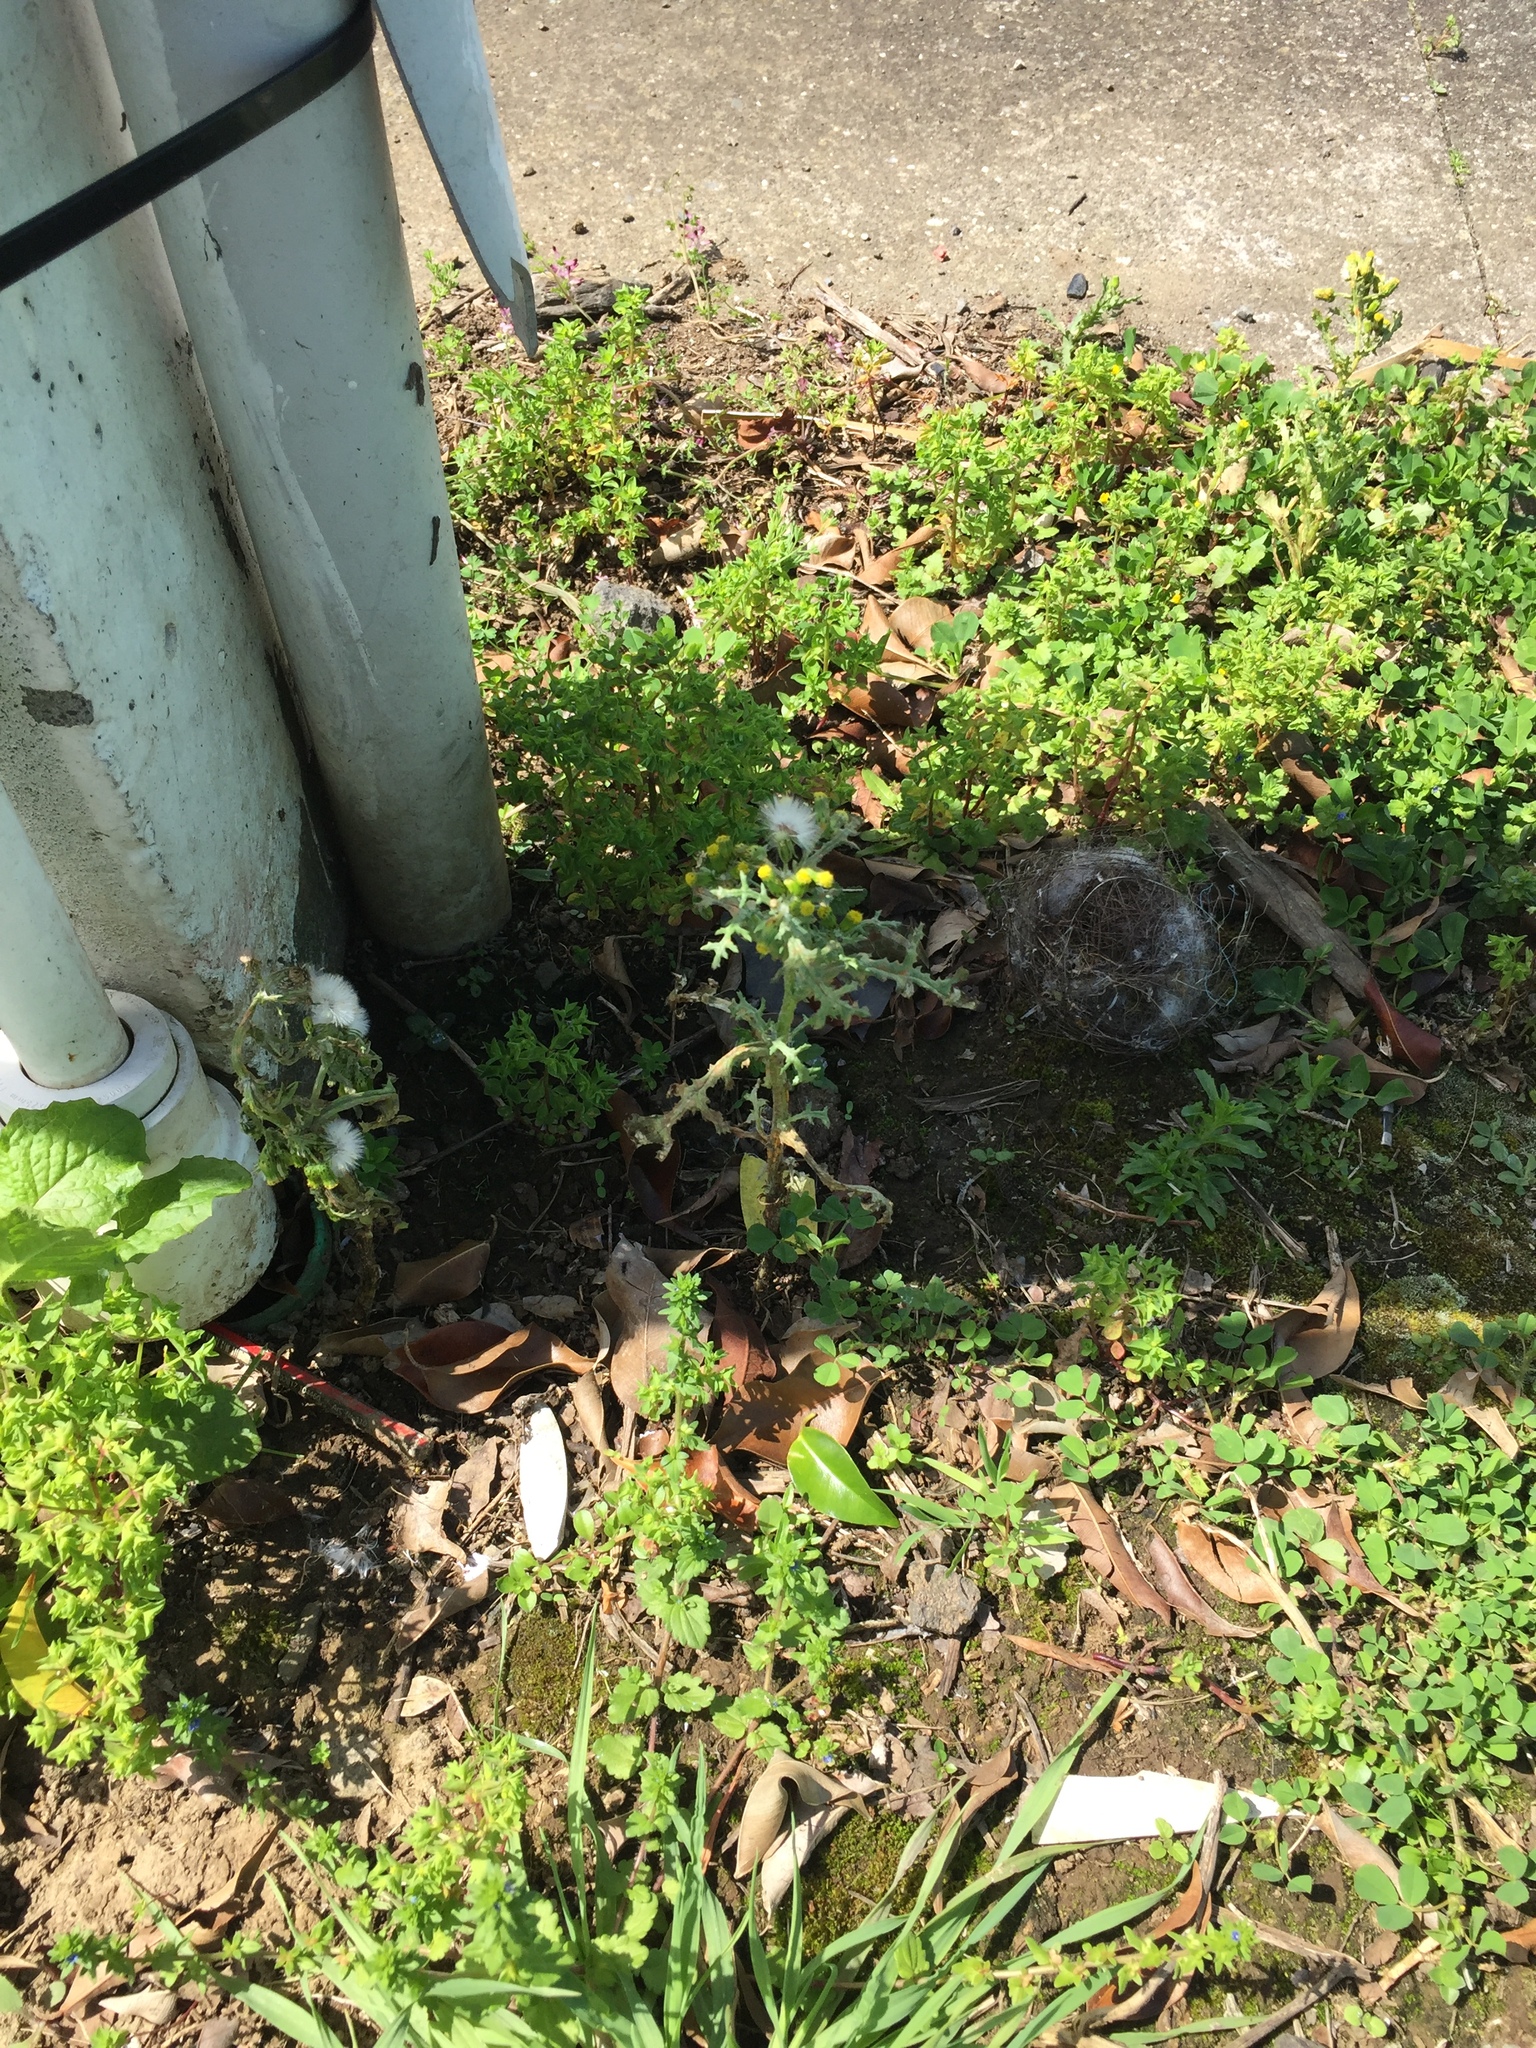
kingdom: Fungi
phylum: Basidiomycota
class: Pucciniomycetes
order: Pucciniales
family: Pucciniaceae
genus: Puccinia
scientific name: Puccinia lagenophorae
